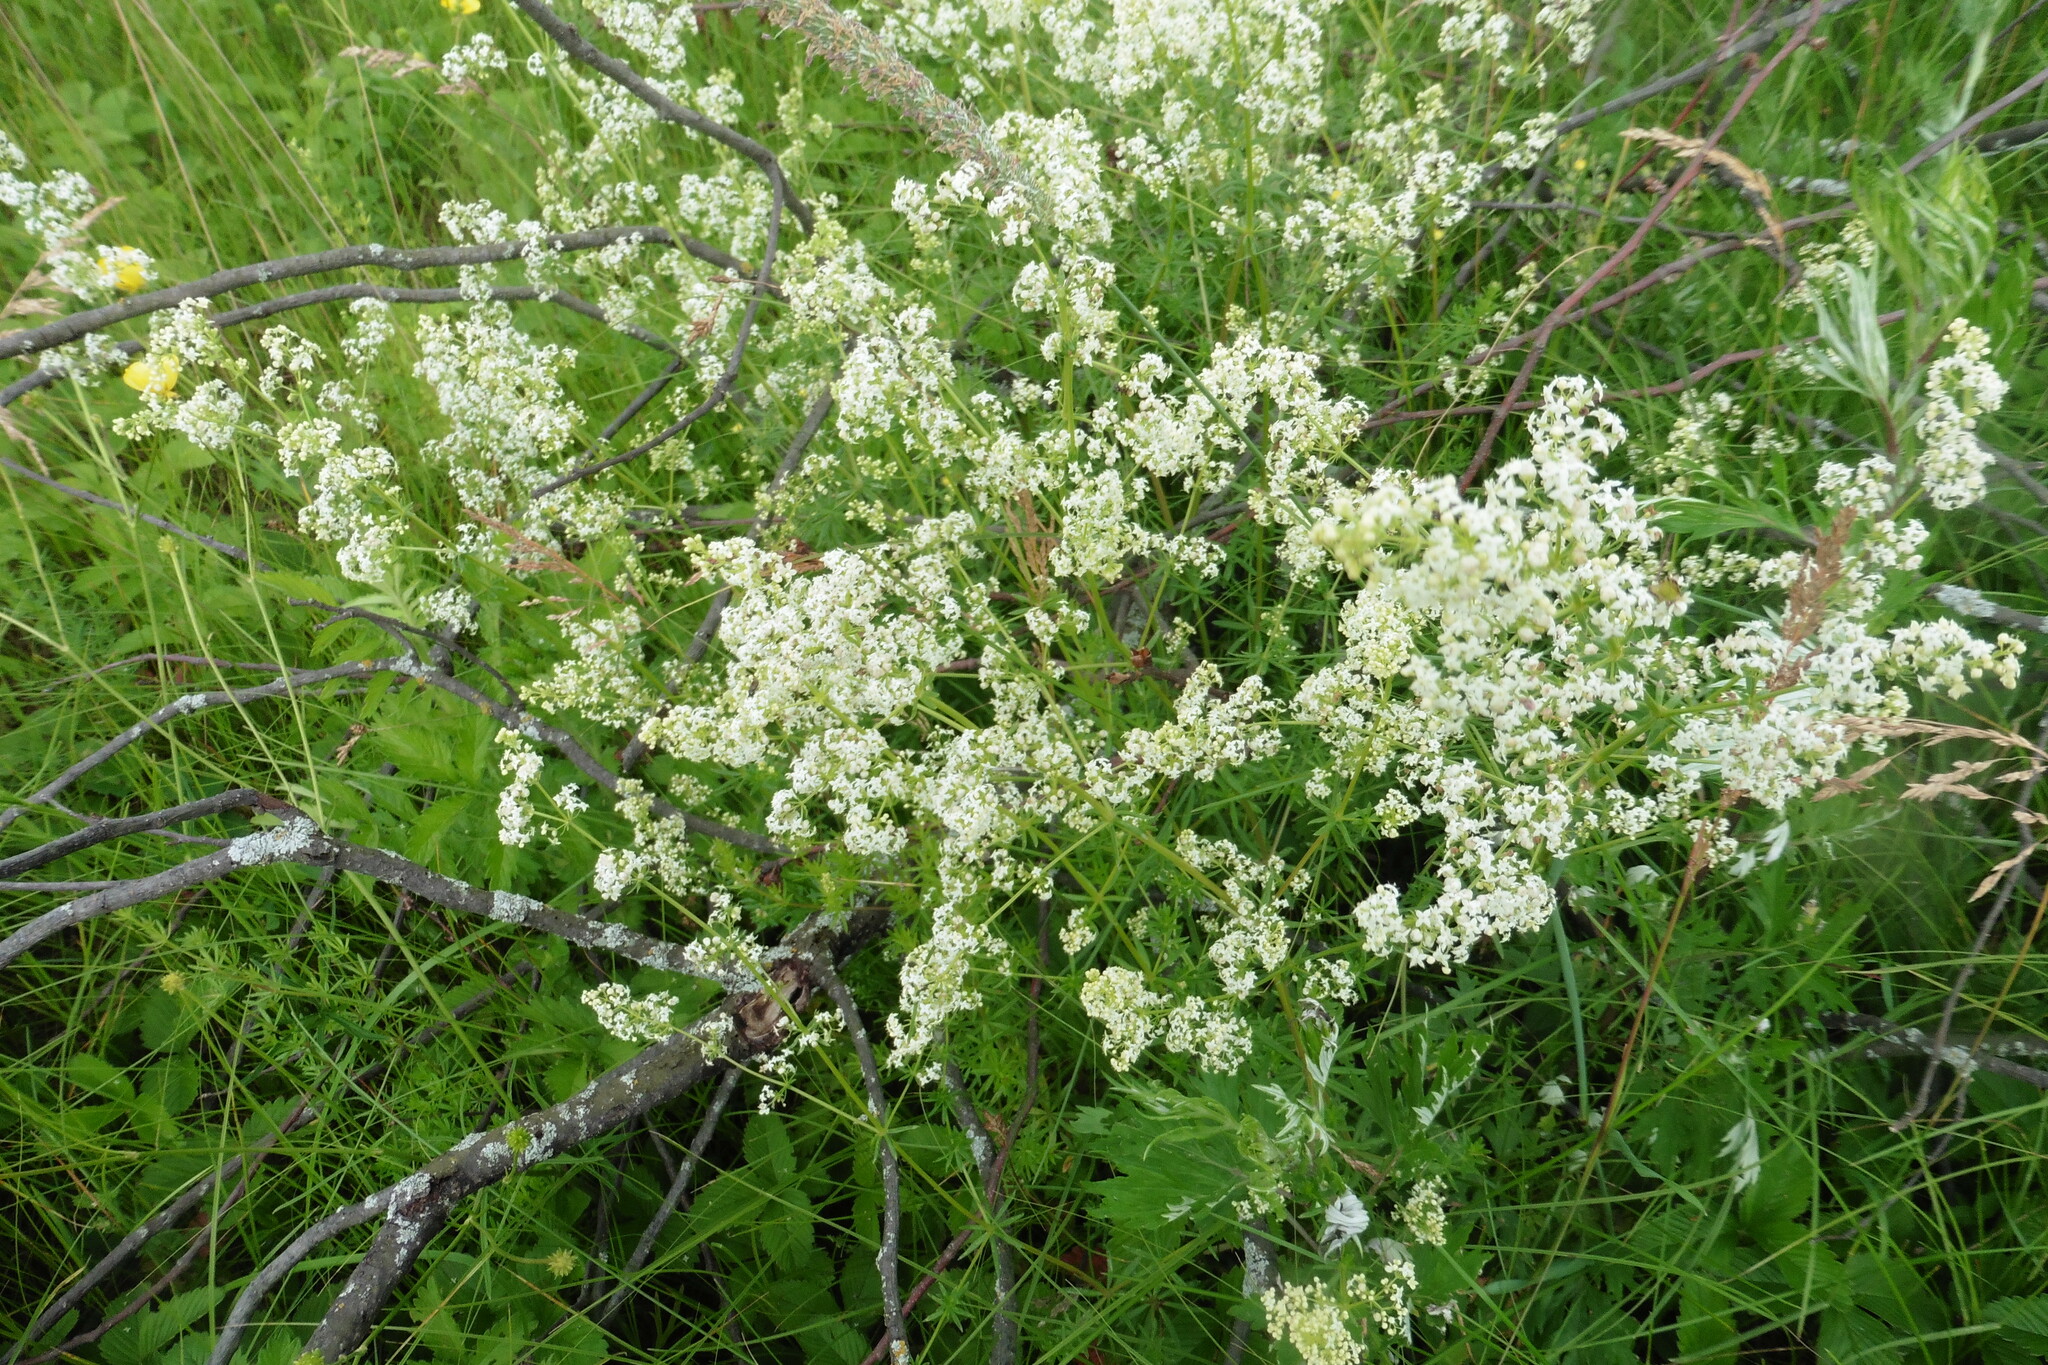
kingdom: Plantae
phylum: Tracheophyta
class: Magnoliopsida
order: Gentianales
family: Rubiaceae
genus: Galium
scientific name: Galium mollugo
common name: Hedge bedstraw
